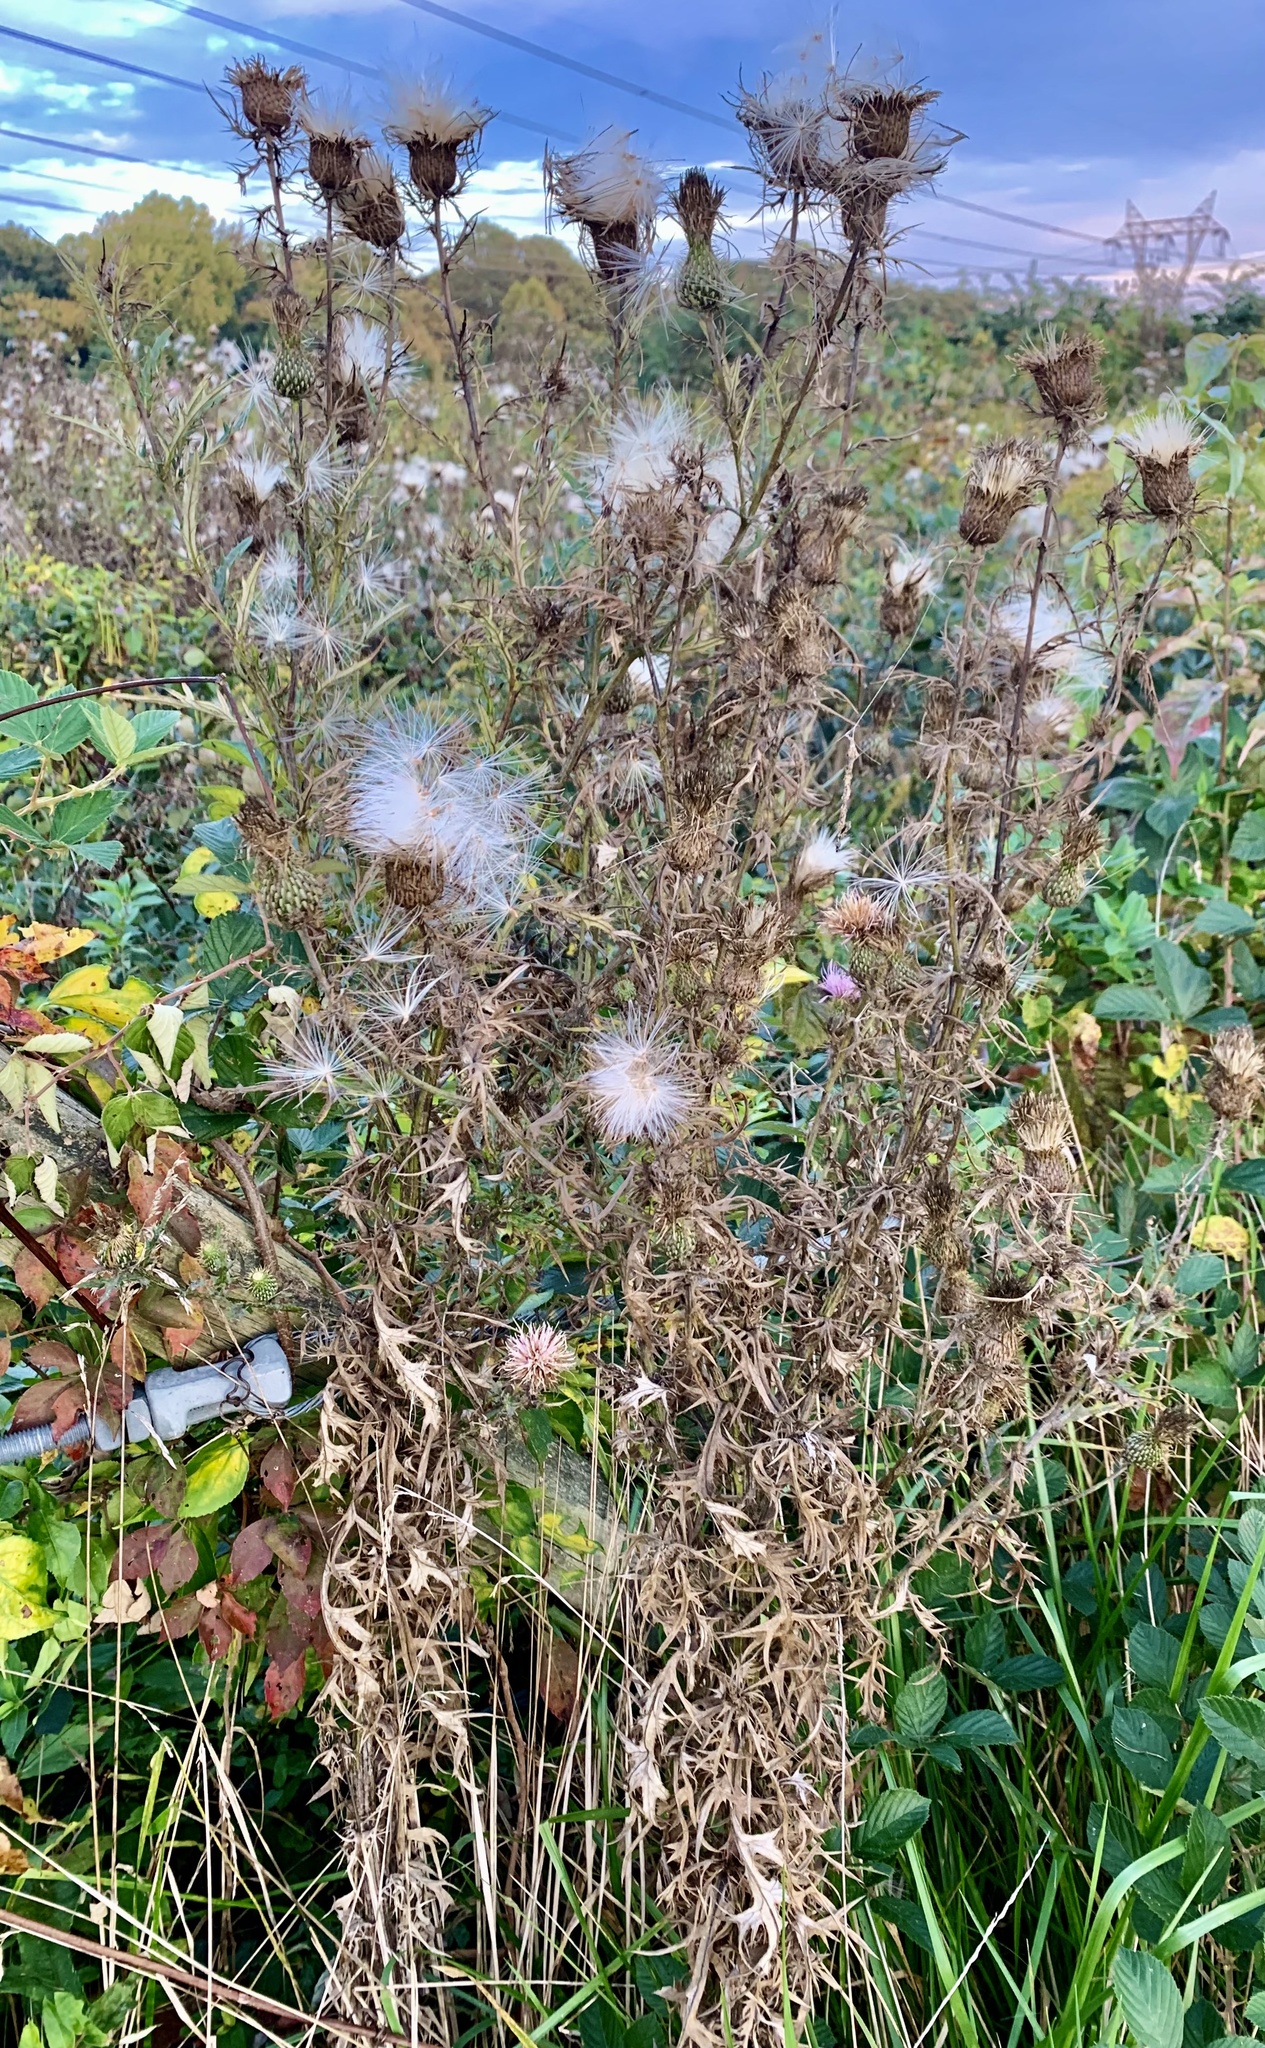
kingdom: Plantae
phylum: Tracheophyta
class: Magnoliopsida
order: Asterales
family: Asteraceae
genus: Cirsium
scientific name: Cirsium discolor
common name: Field thistle
